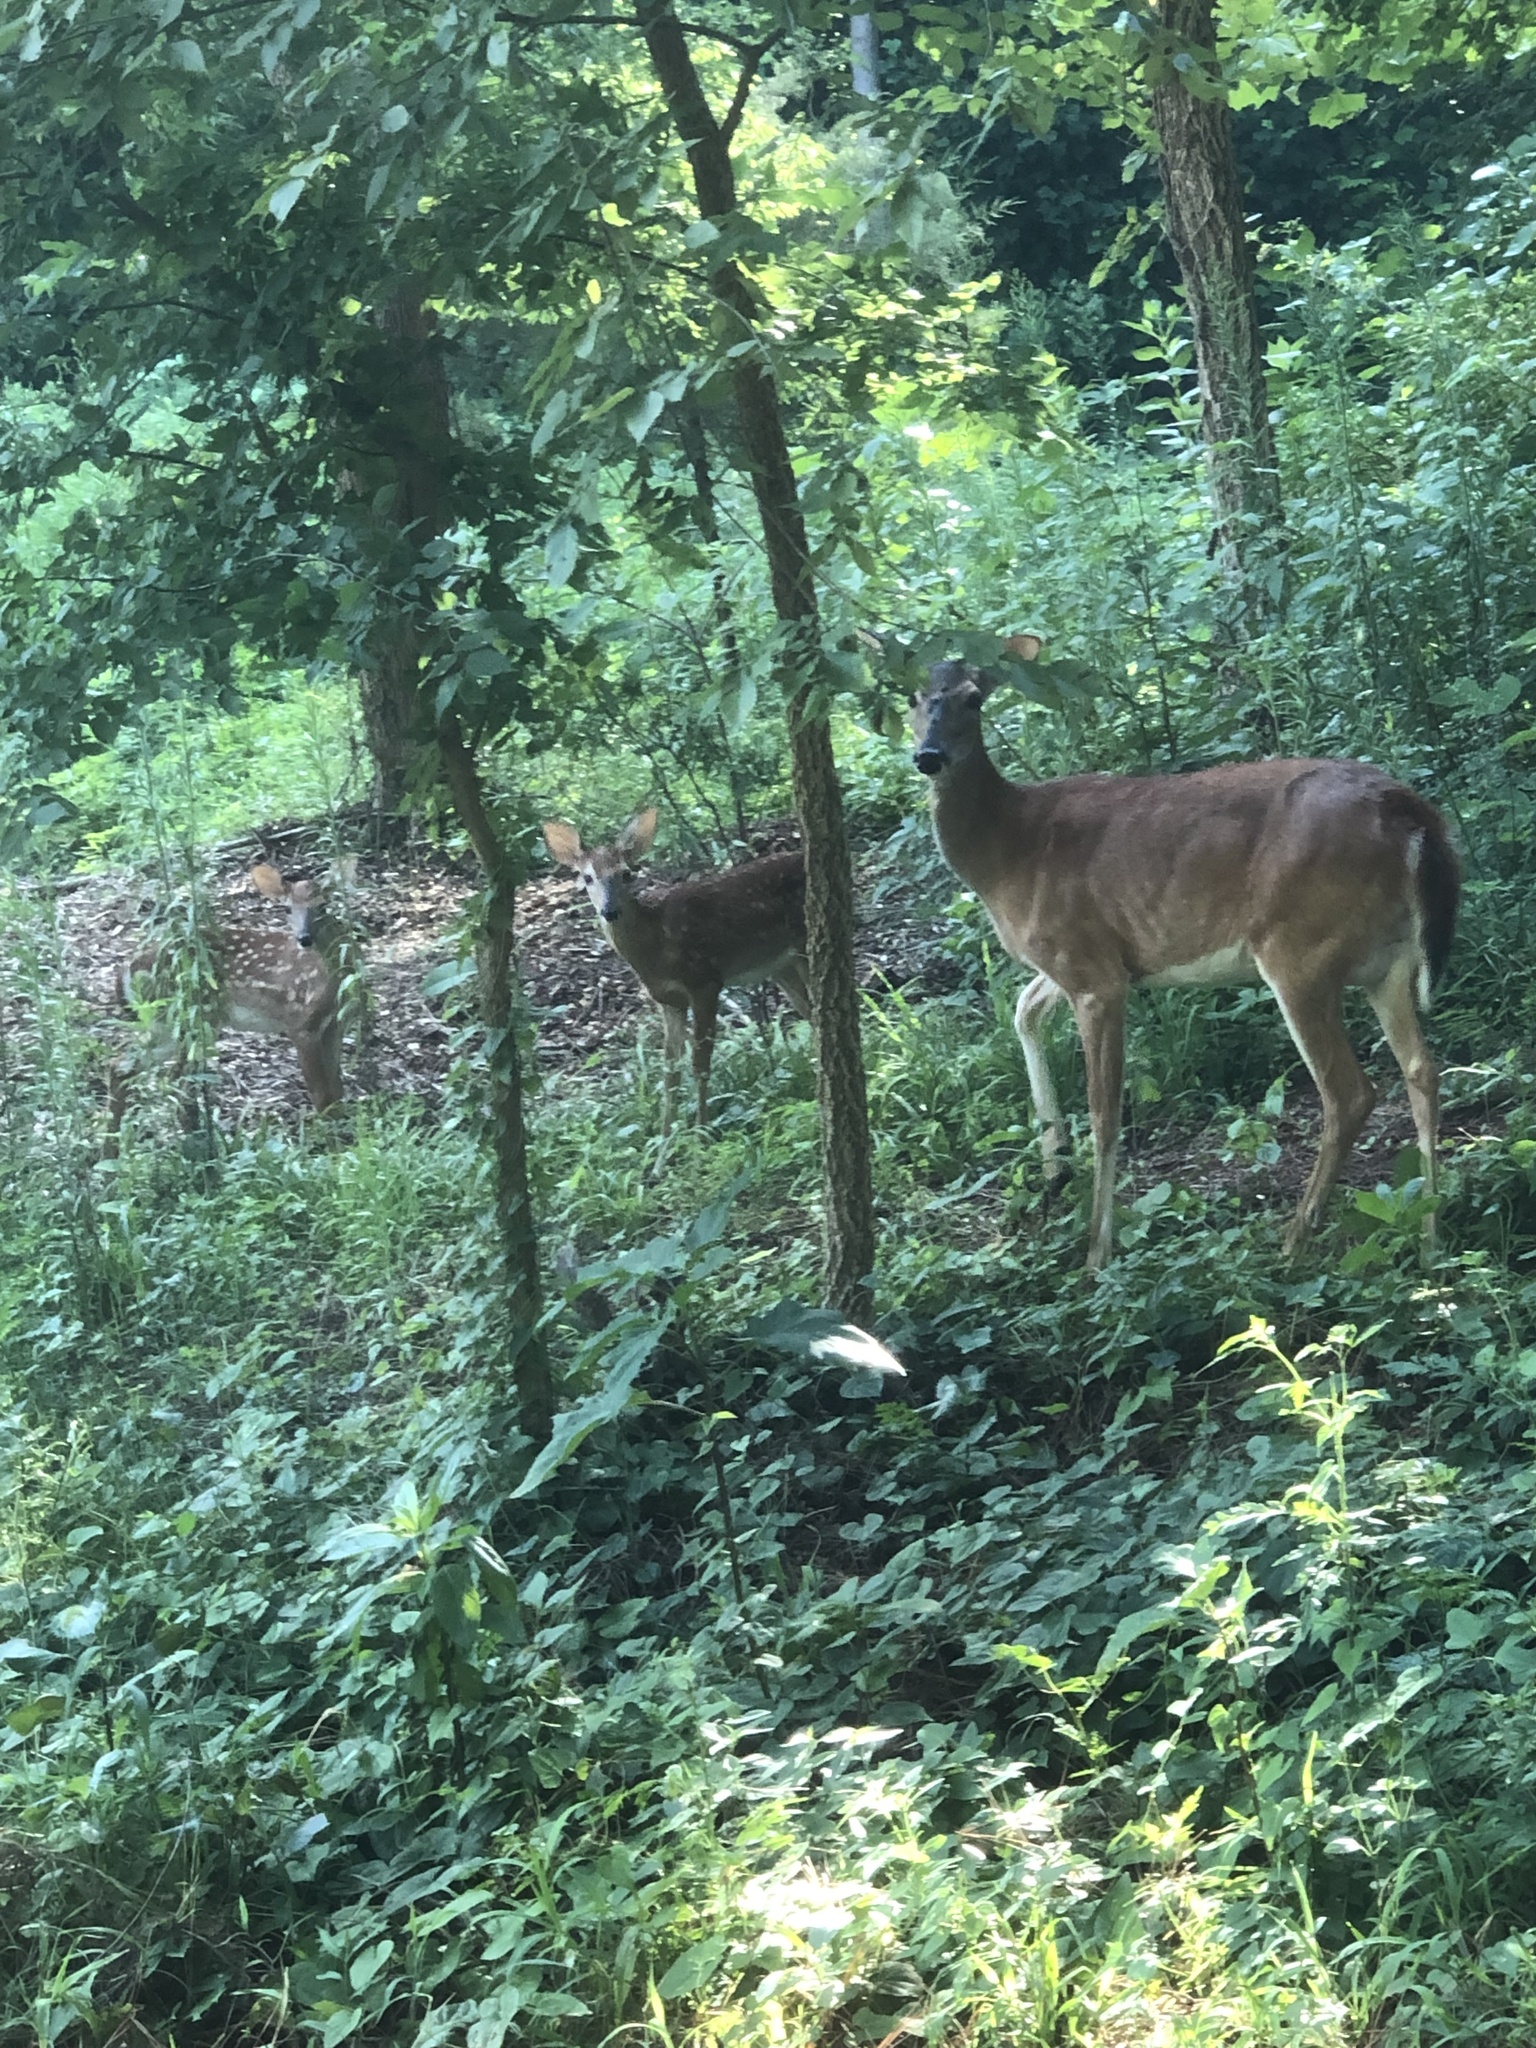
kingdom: Animalia
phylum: Chordata
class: Mammalia
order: Artiodactyla
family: Cervidae
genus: Odocoileus
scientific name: Odocoileus virginianus
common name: White-tailed deer
